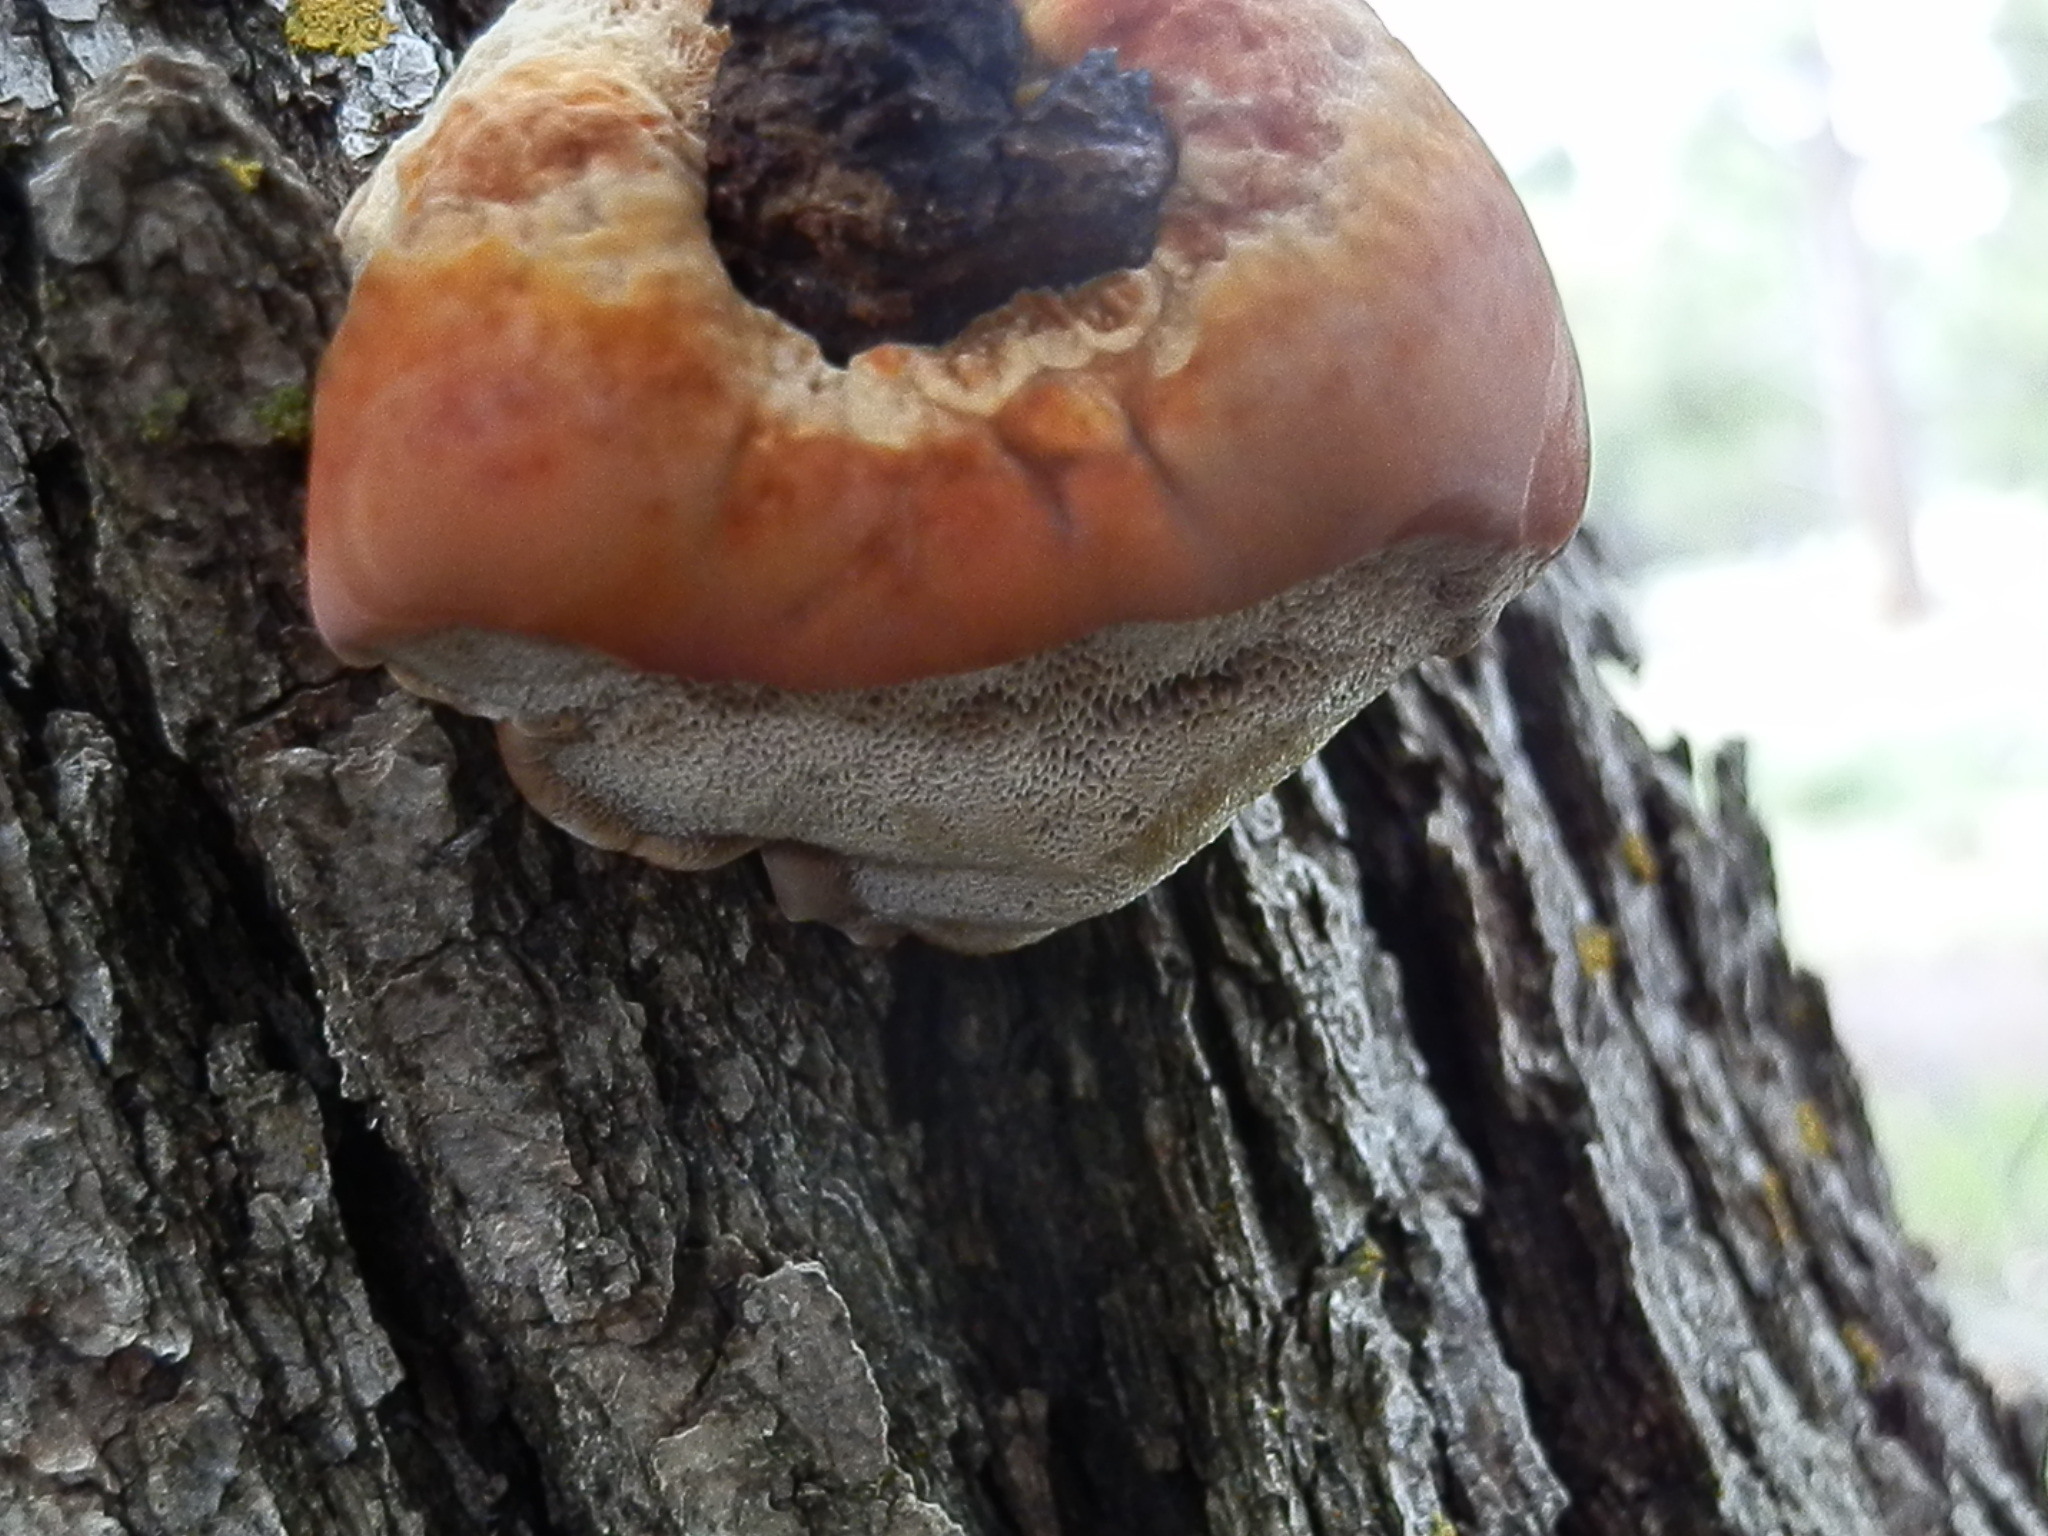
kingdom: Fungi
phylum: Basidiomycota
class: Agaricomycetes
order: Hymenochaetales
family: Hymenochaetaceae
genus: Inocutis
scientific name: Inocutis dryophila
